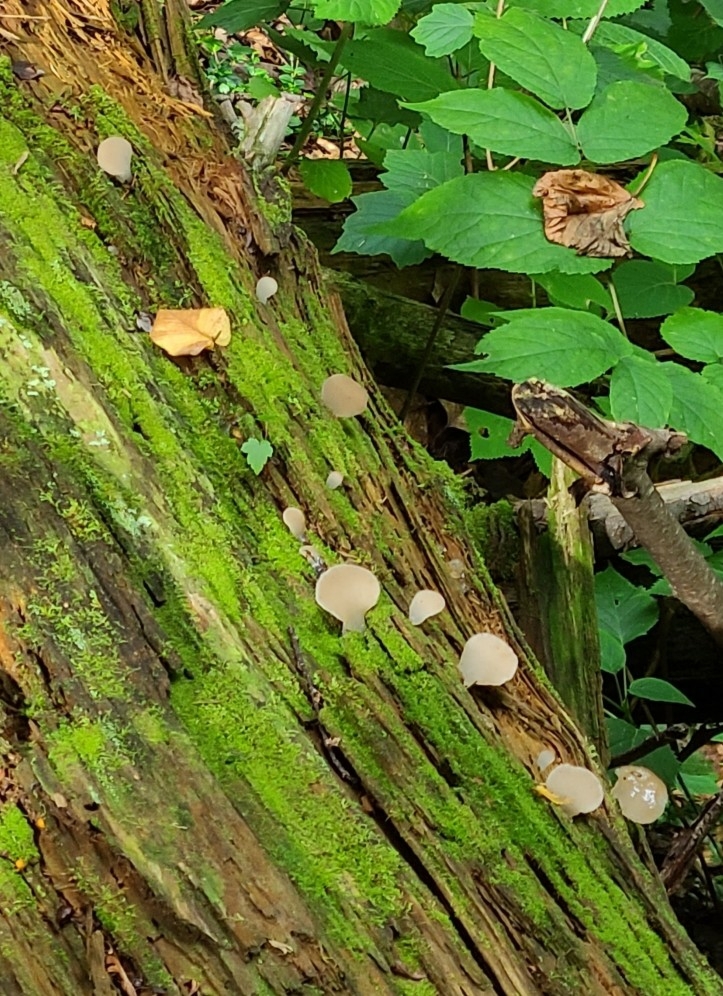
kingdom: Fungi
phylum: Basidiomycota
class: Agaricomycetes
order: Auriculariales
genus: Pseudohydnum
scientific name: Pseudohydnum gelatinosum
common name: Jelly tongue
